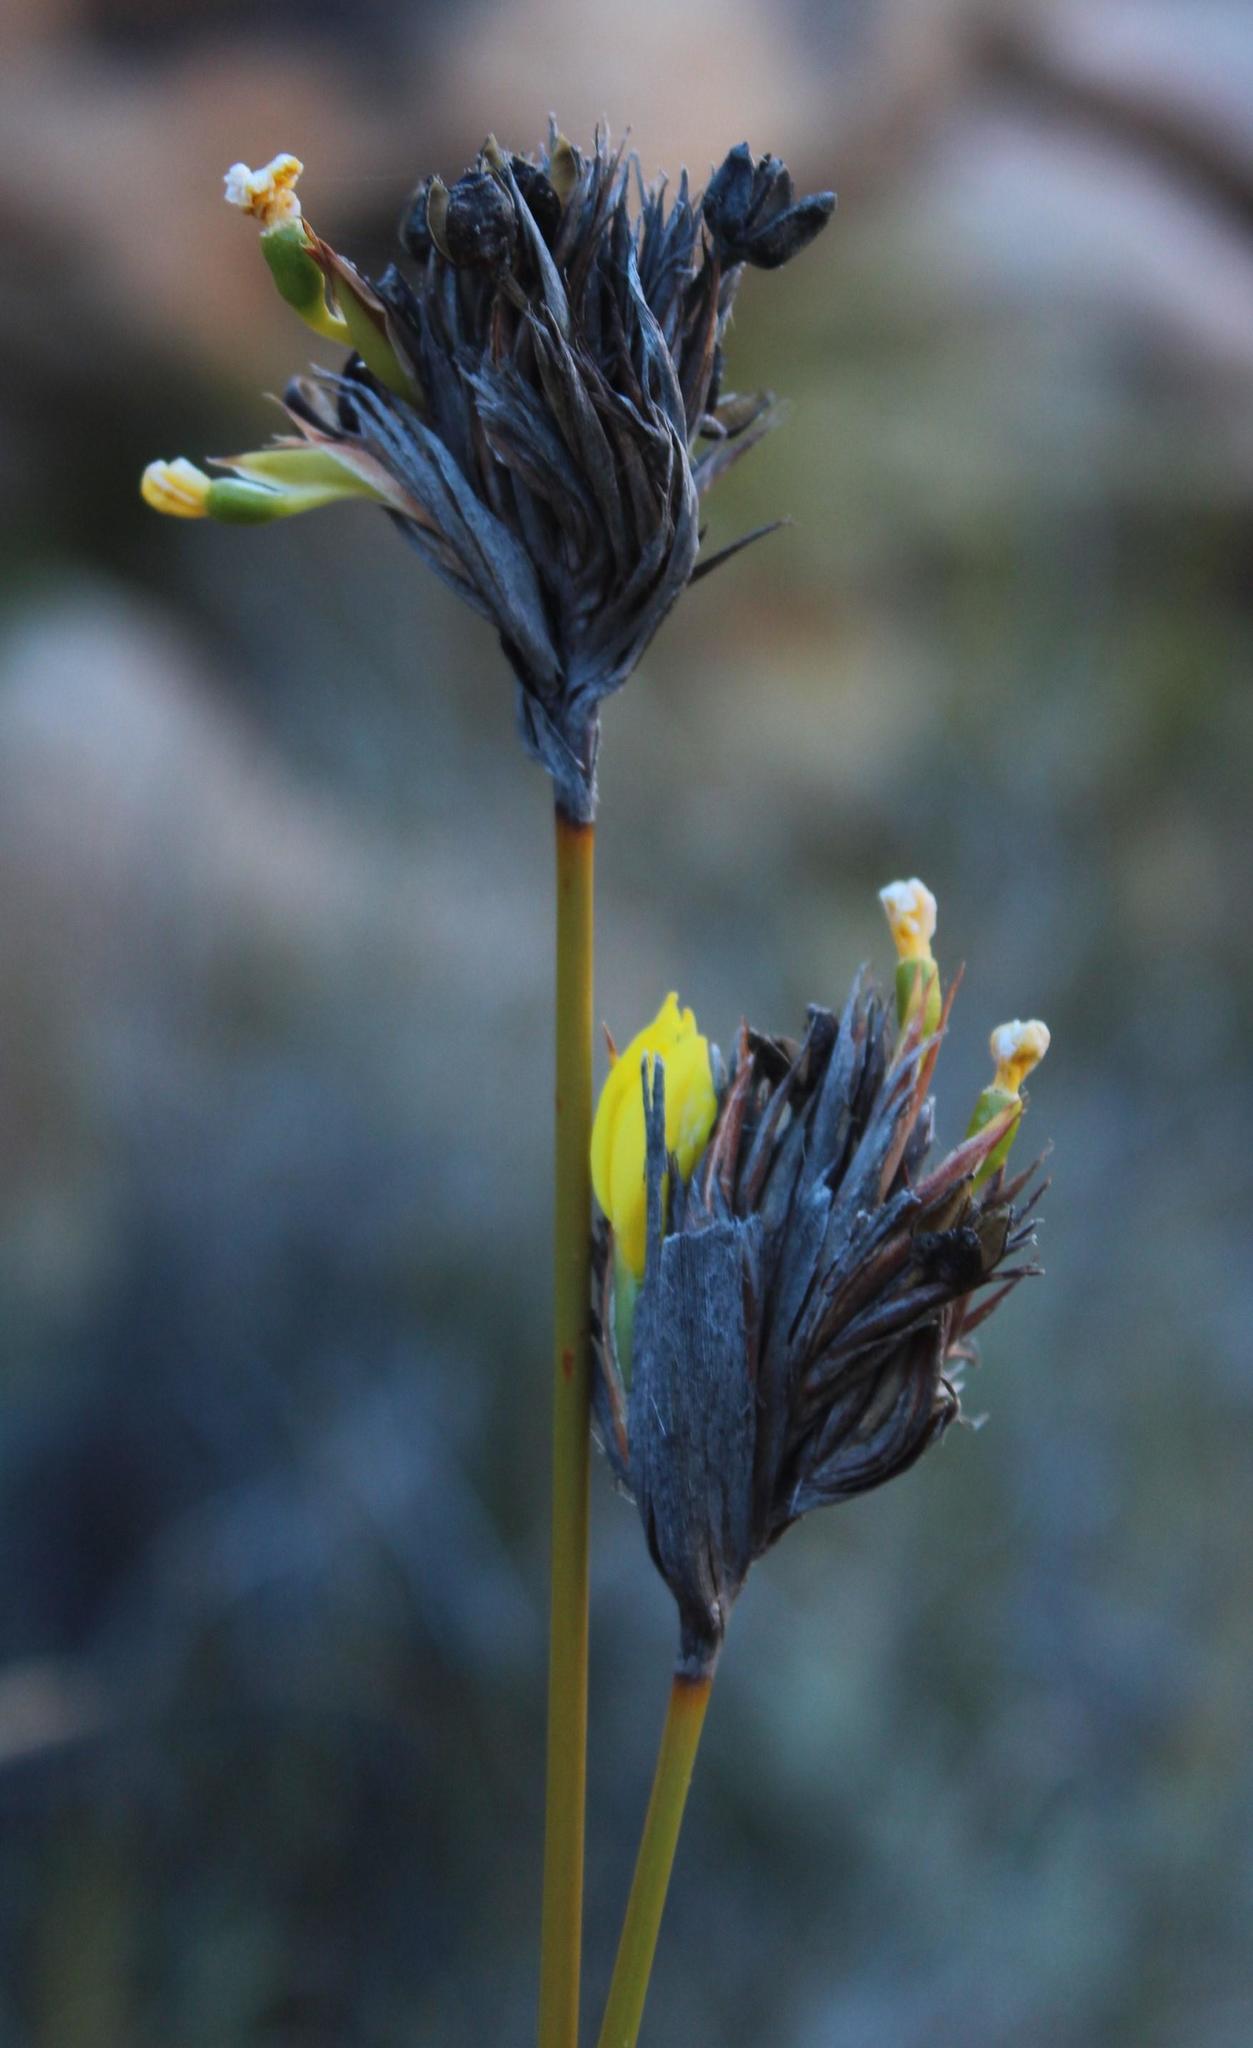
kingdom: Plantae
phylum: Tracheophyta
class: Liliopsida
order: Asparagales
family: Iridaceae
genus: Bobartia
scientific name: Bobartia rufa
